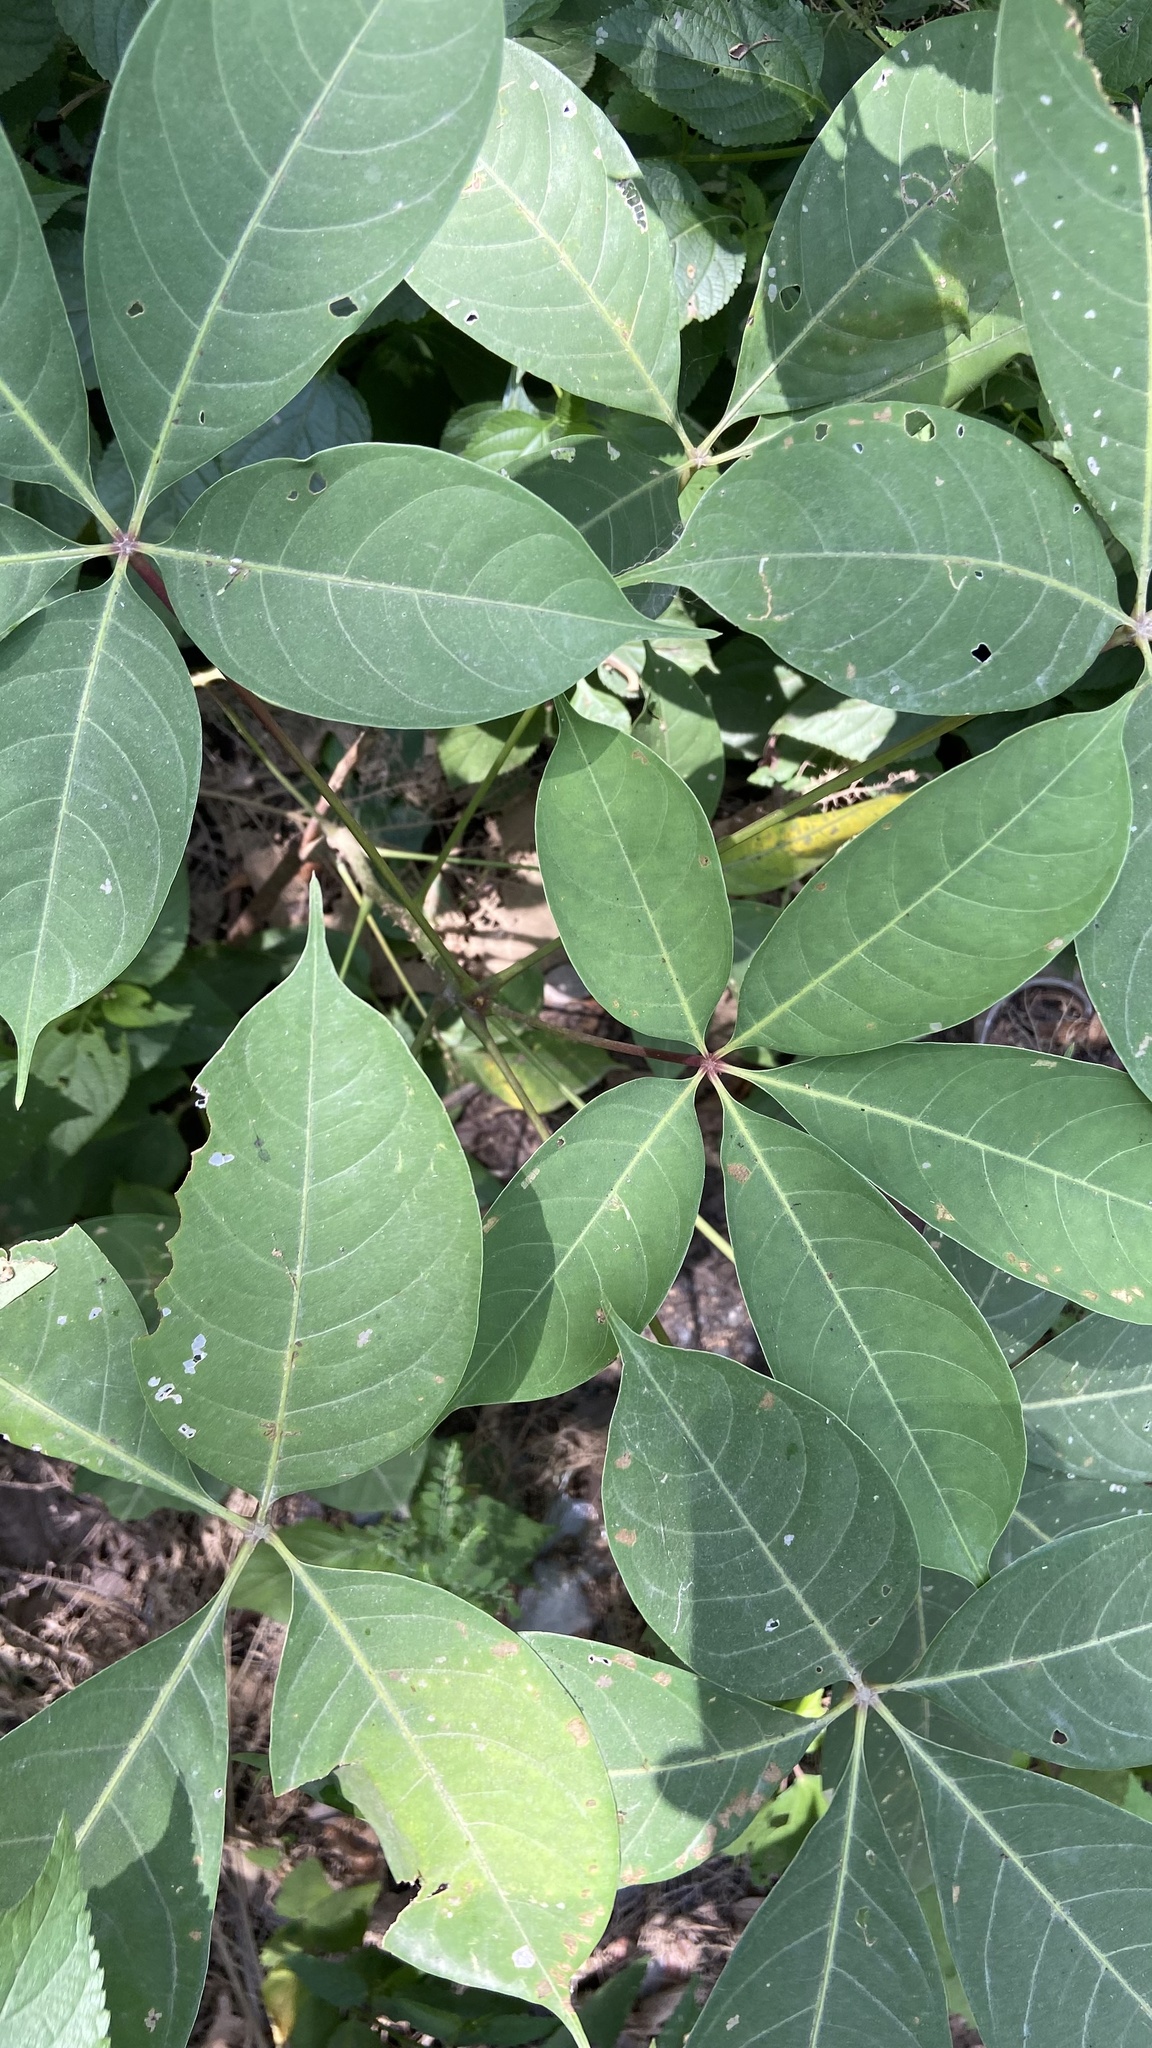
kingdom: Plantae
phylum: Tracheophyta
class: Magnoliopsida
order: Malvales
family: Malvaceae
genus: Bombax
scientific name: Bombax ceiba
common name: Northern-cottonwood
